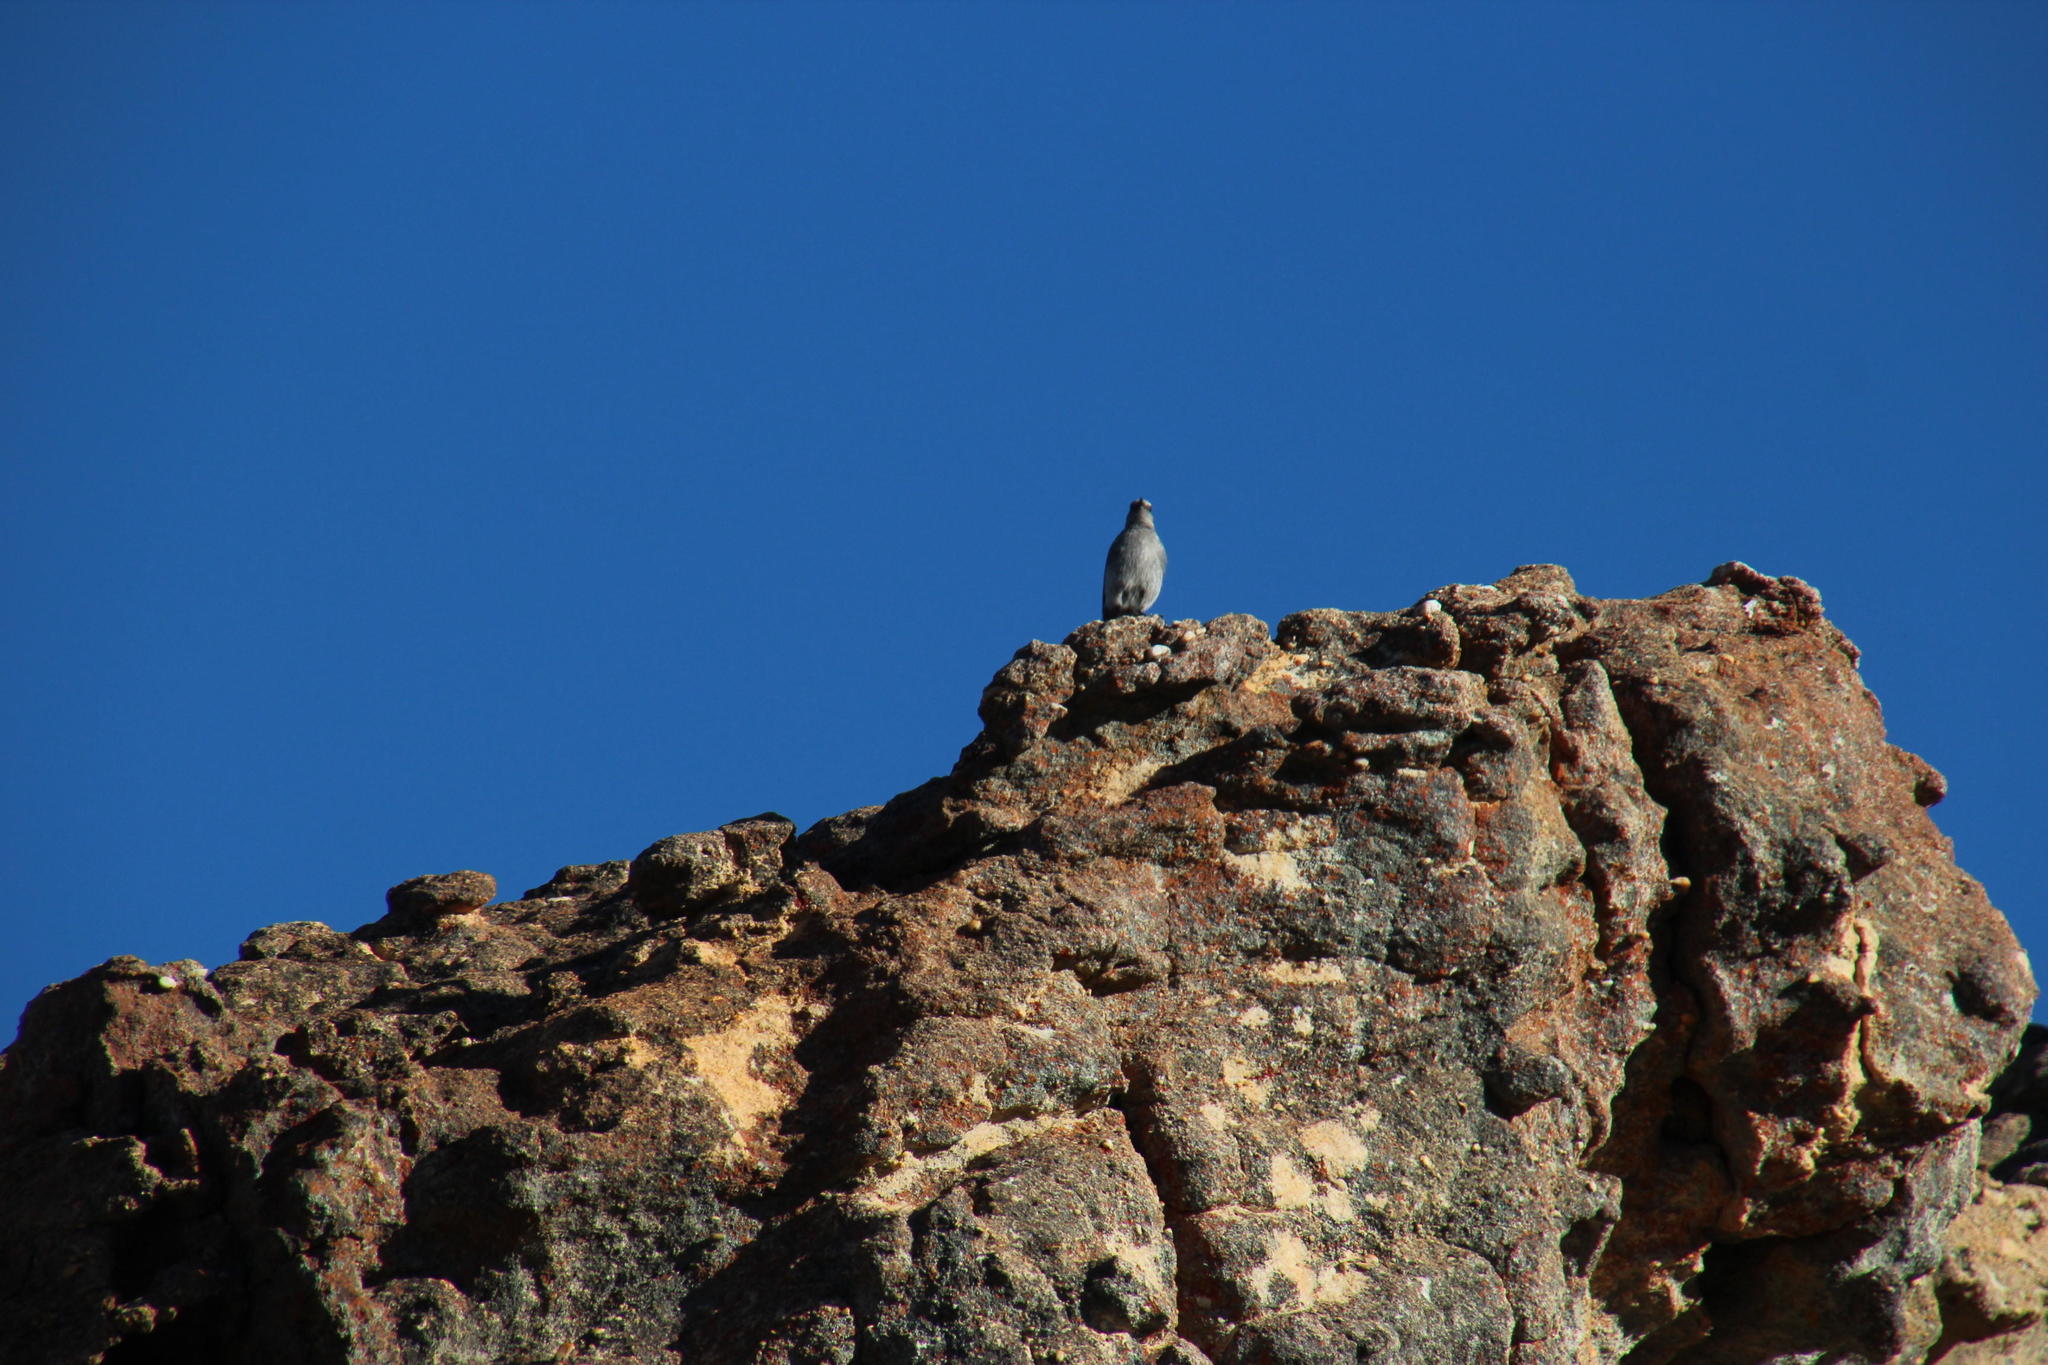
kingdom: Animalia
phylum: Chordata
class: Aves
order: Passeriformes
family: Muscicapidae
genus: Oenanthe
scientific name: Oenanthe monticola
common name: Mountain wheatear
